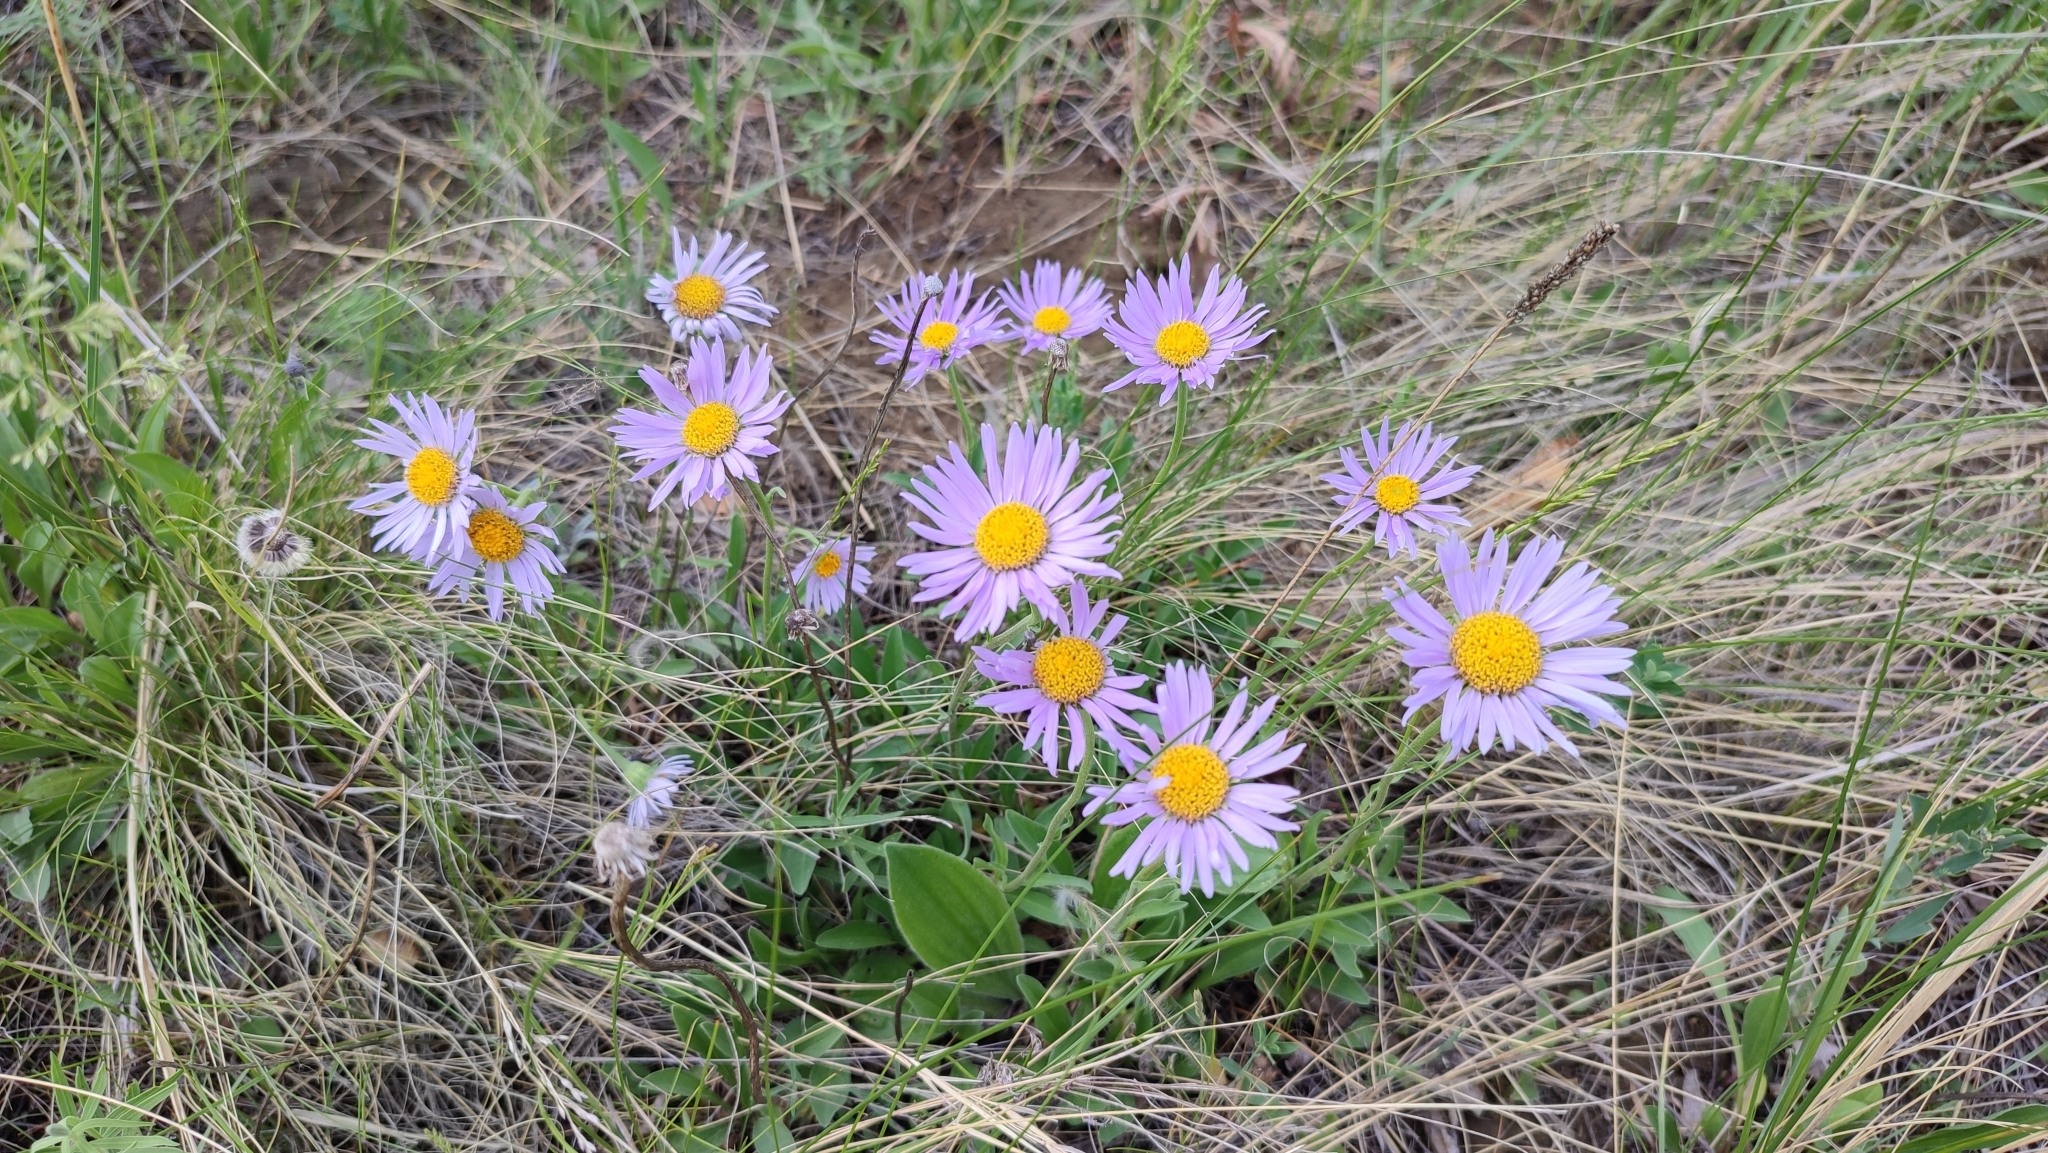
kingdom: Plantae
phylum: Tracheophyta
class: Magnoliopsida
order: Asterales
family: Asteraceae
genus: Aster
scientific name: Aster alpinus
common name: Alpine aster
